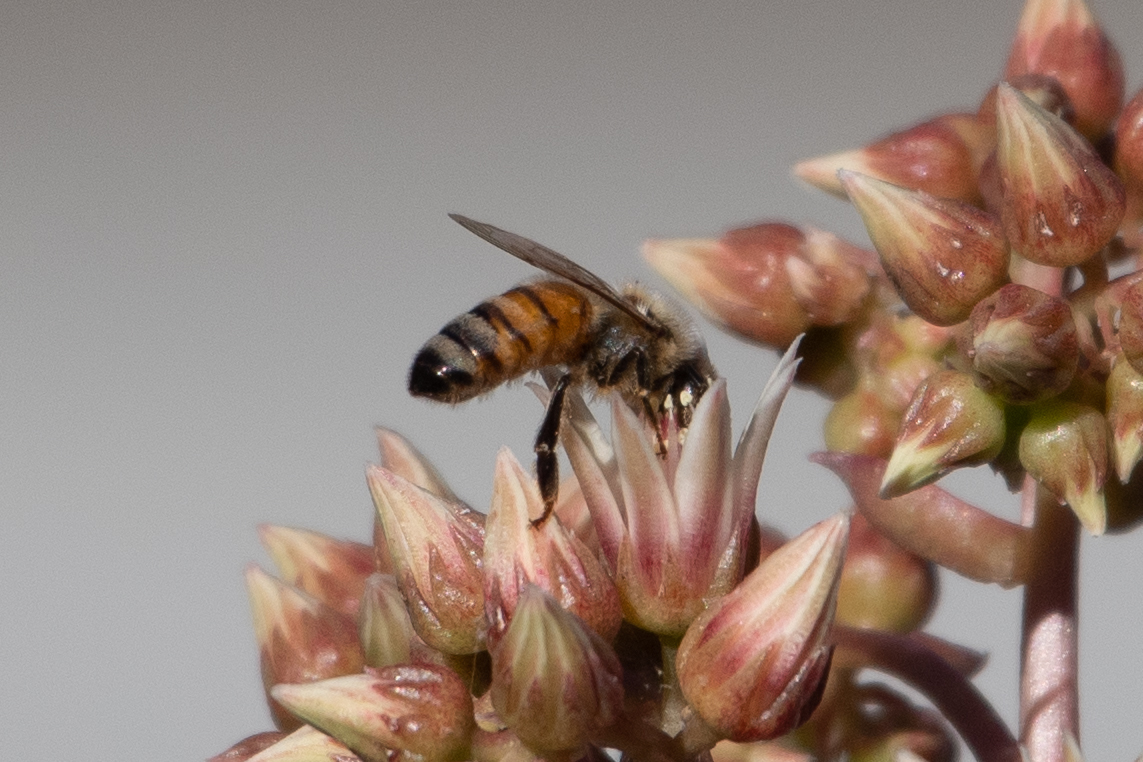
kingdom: Animalia
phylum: Arthropoda
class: Insecta
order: Hymenoptera
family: Apidae
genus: Apis
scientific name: Apis mellifera
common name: Honey bee
